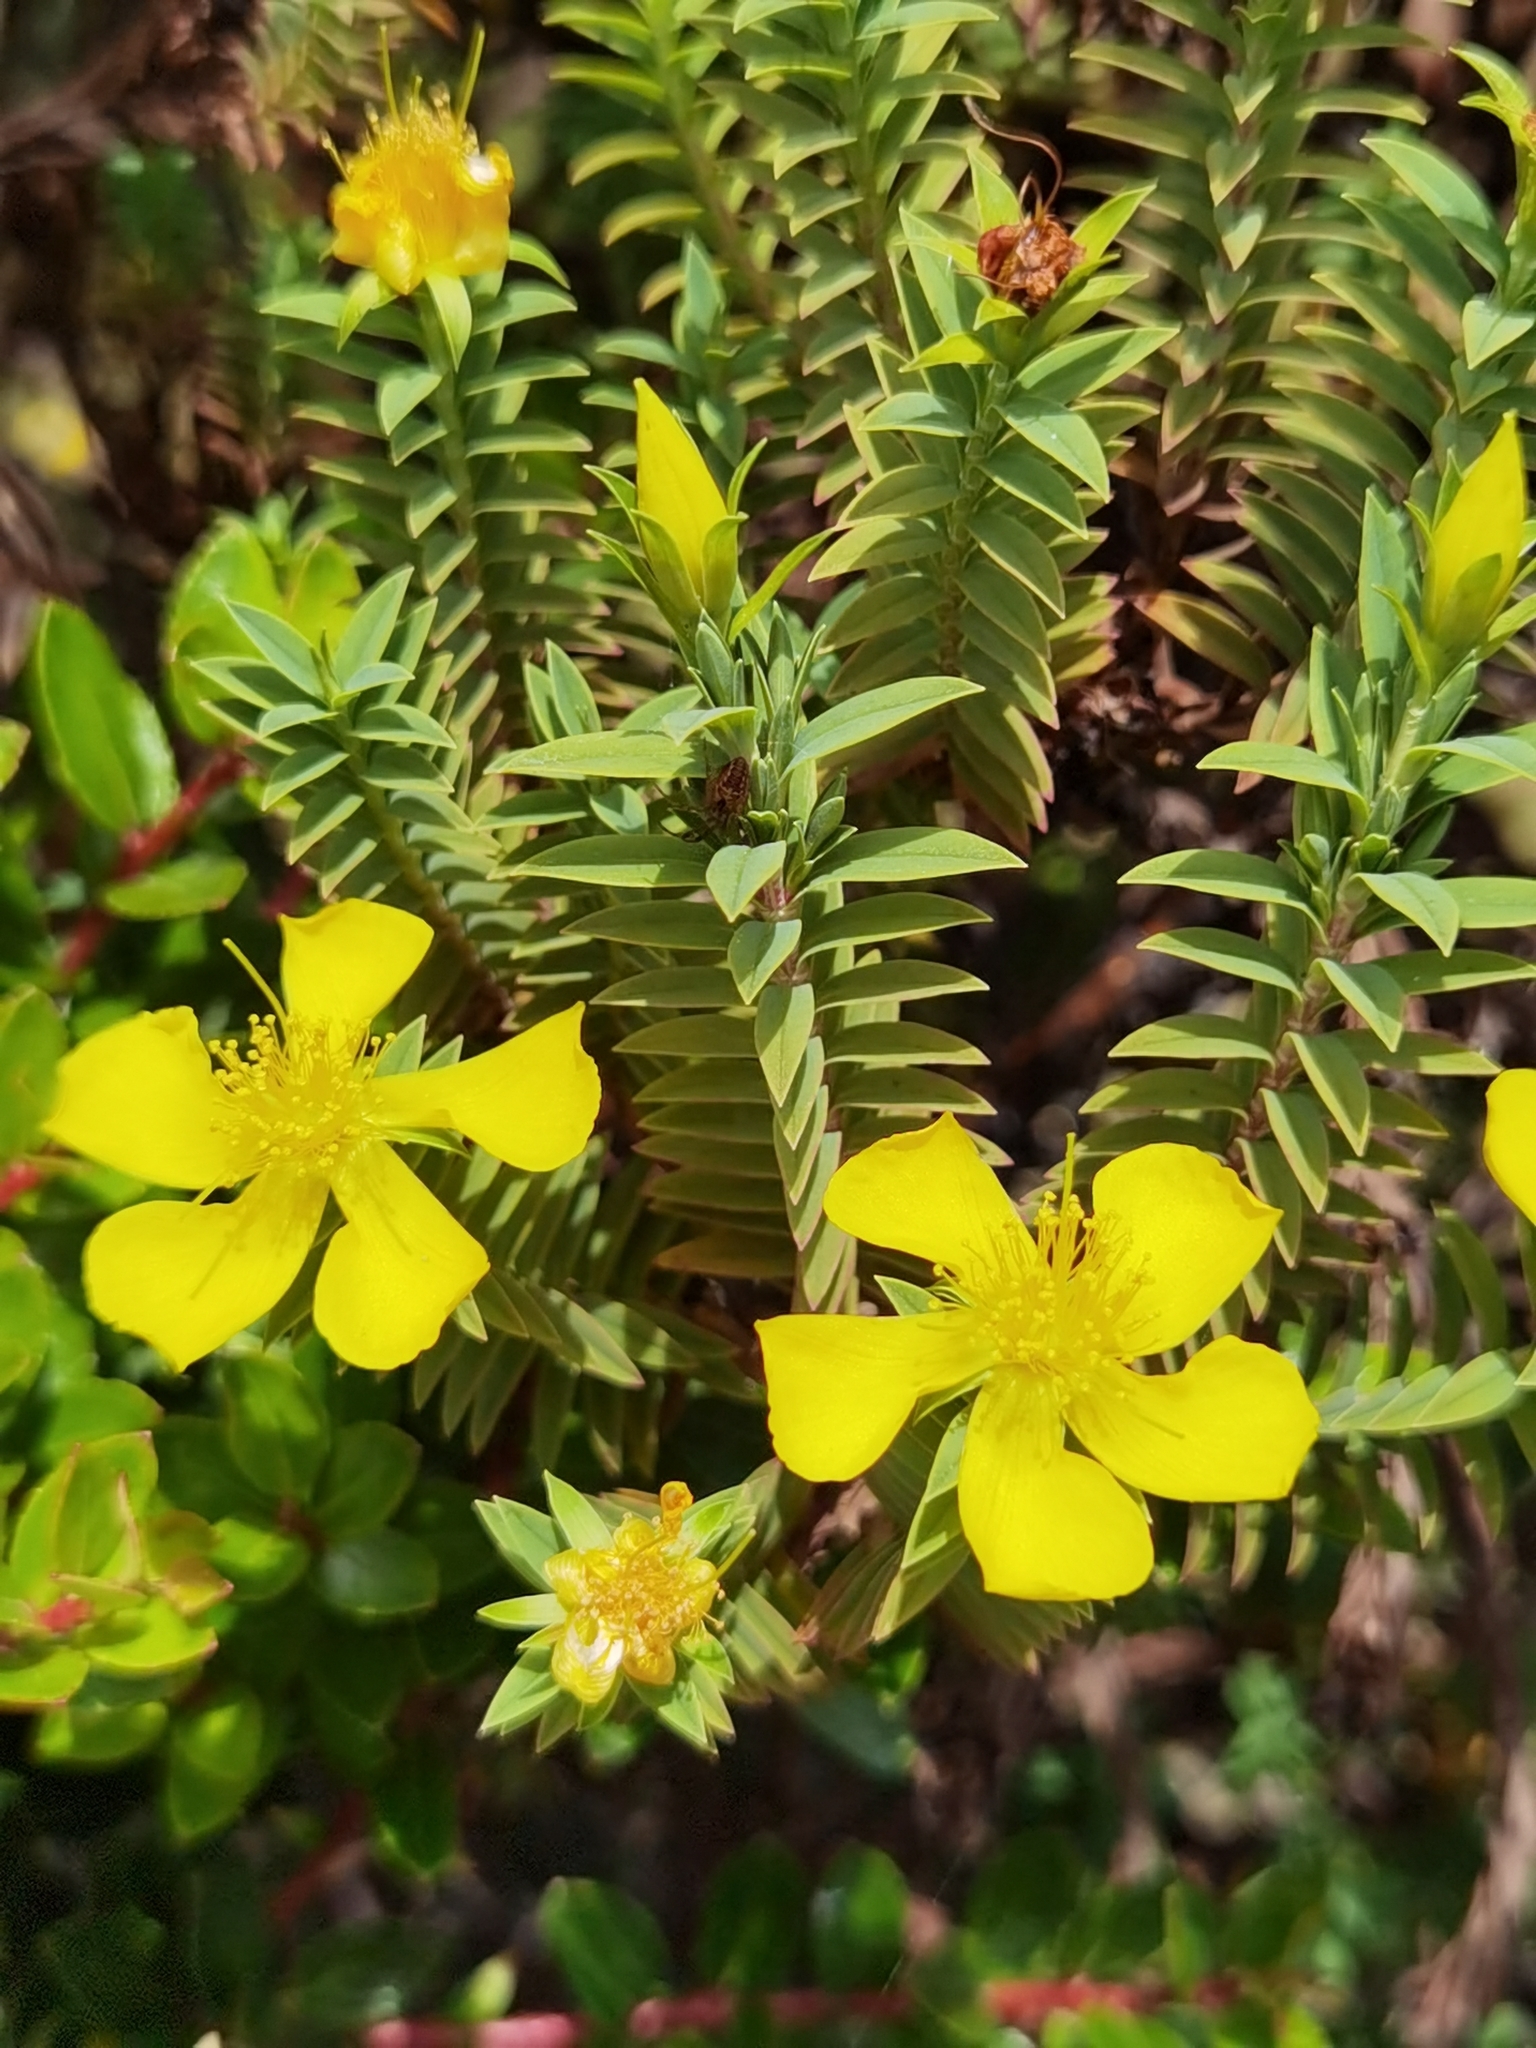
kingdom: Plantae
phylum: Tracheophyta
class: Magnoliopsida
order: Malpighiales
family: Hypericaceae
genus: Hypericum
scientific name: Hypericum irazuense
